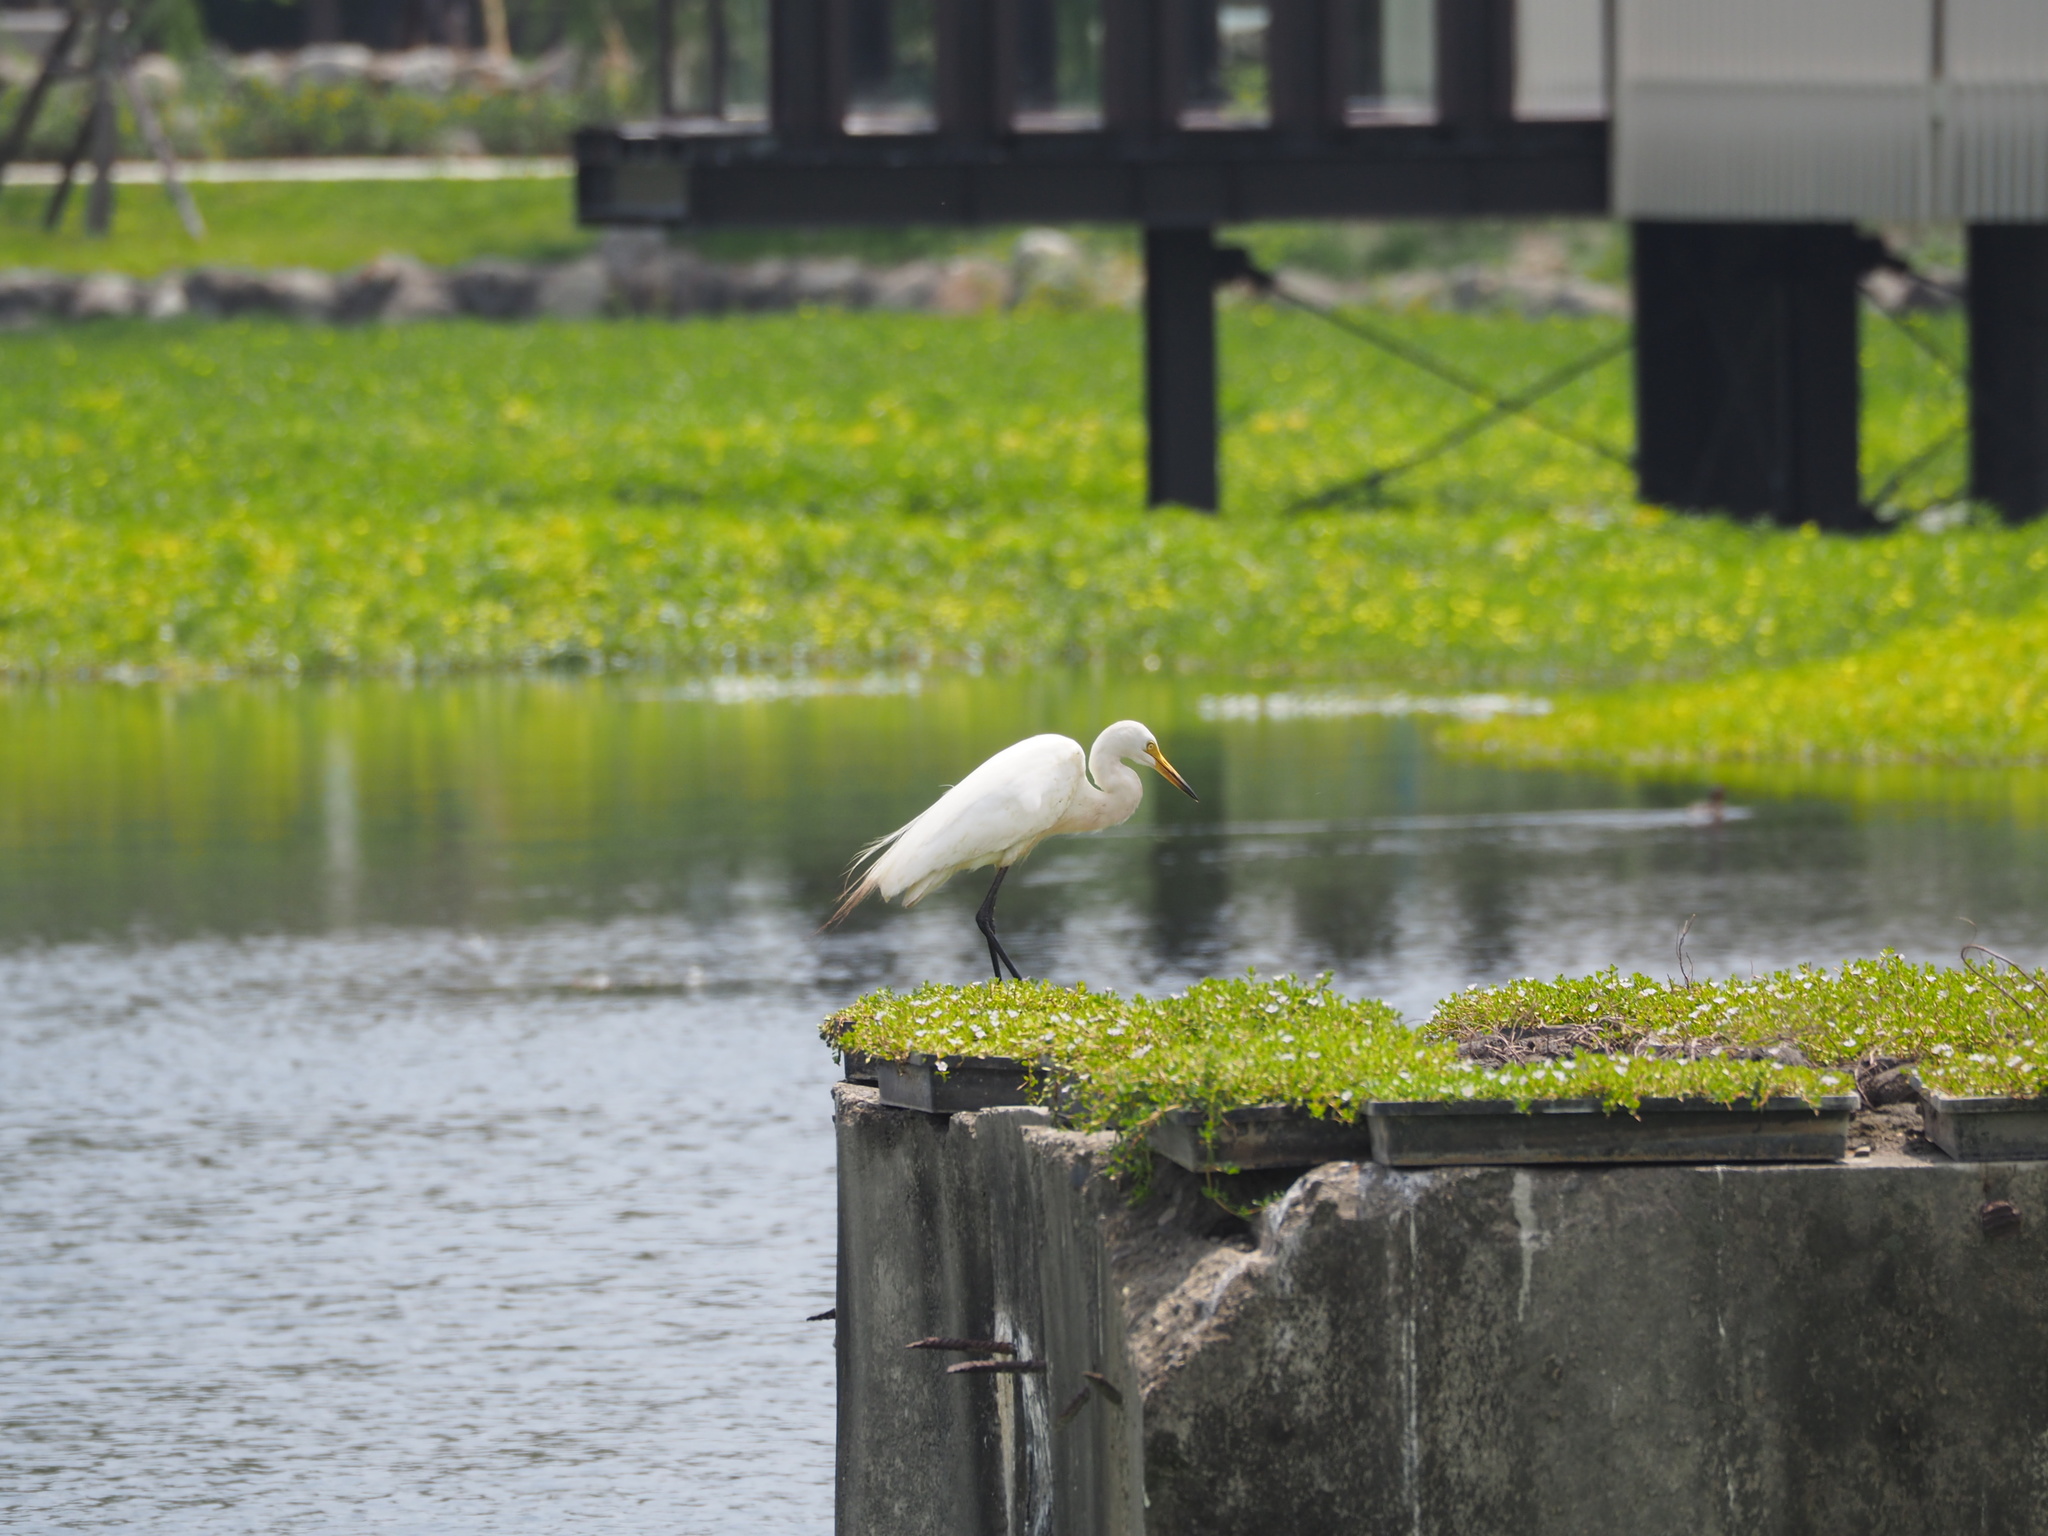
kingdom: Animalia
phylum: Chordata
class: Aves
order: Pelecaniformes
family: Ardeidae
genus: Egretta
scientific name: Egretta intermedia
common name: Intermediate egret
